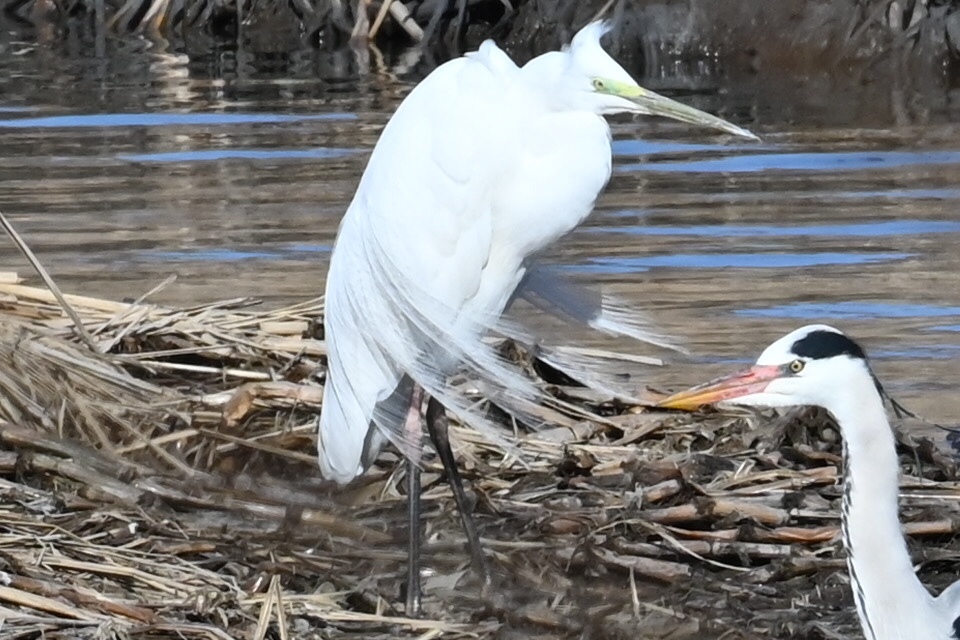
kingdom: Animalia
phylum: Chordata
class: Aves
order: Pelecaniformes
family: Ardeidae
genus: Ardea
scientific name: Ardea alba
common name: Great egret
